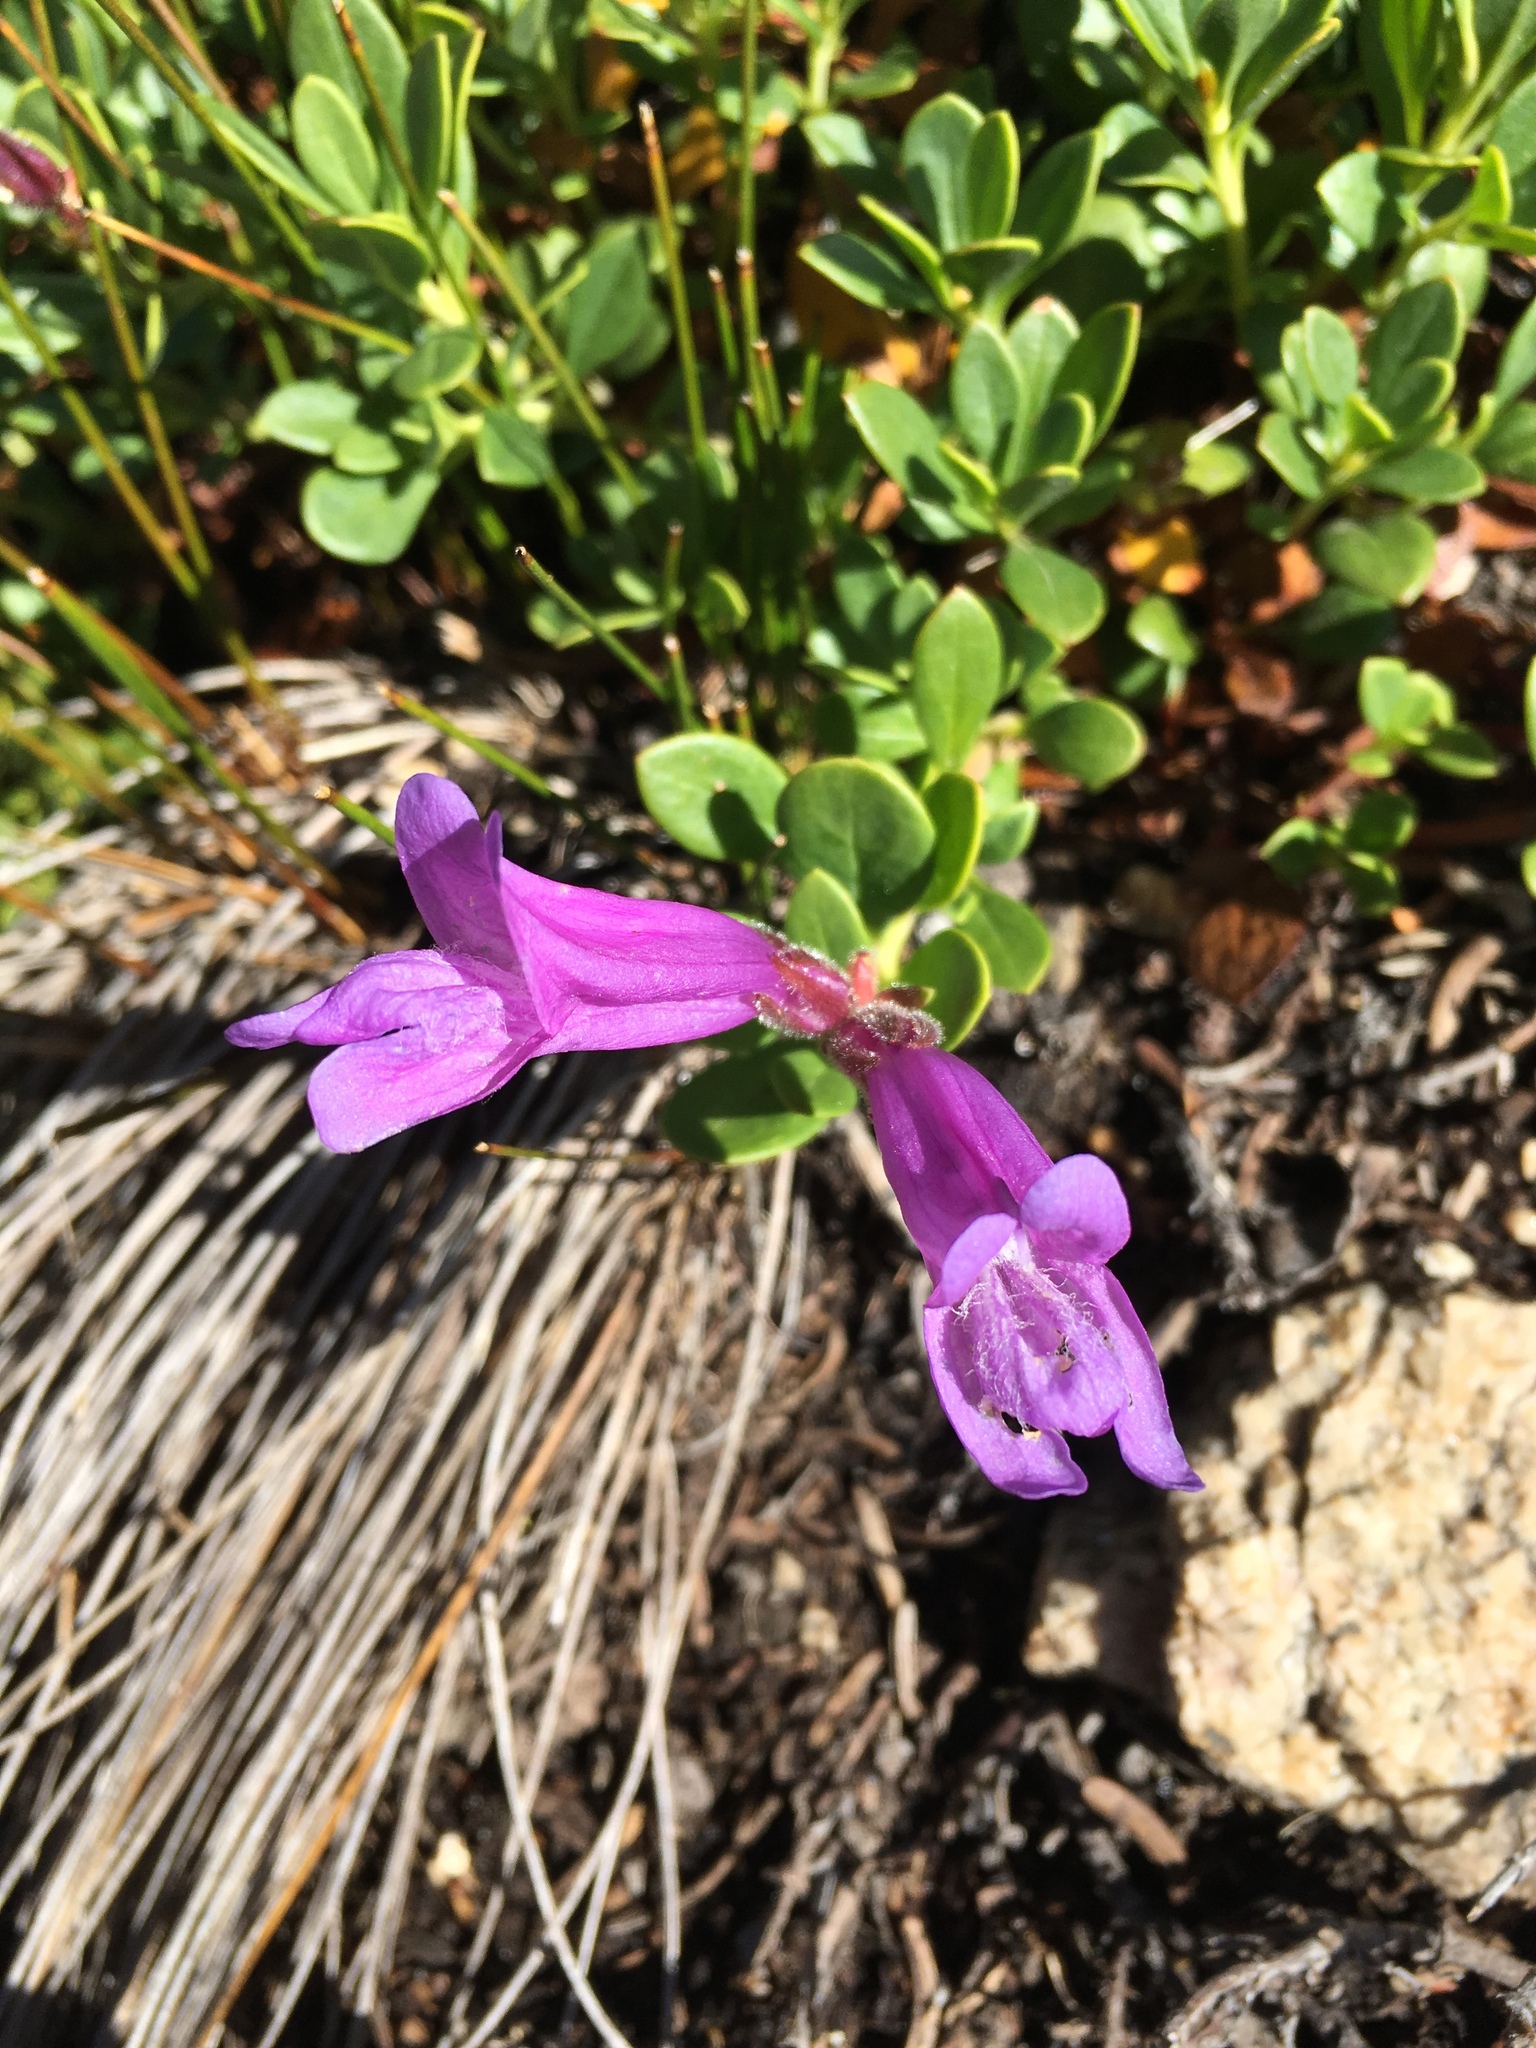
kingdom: Plantae
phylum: Tracheophyta
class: Magnoliopsida
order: Lamiales
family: Plantaginaceae
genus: Penstemon
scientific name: Penstemon davidsonii
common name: Davidson's penstemon
